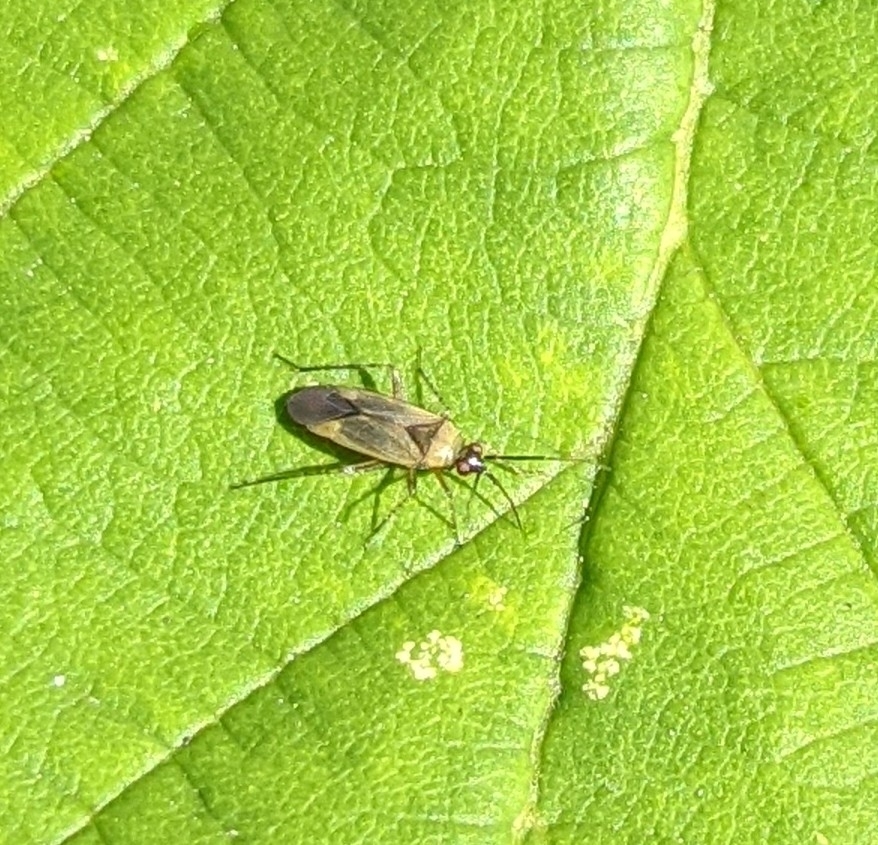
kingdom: Animalia
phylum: Arthropoda
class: Insecta
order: Hemiptera
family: Miridae
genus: Plagiognathus
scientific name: Plagiognathus arbustorum
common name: Plant bug
